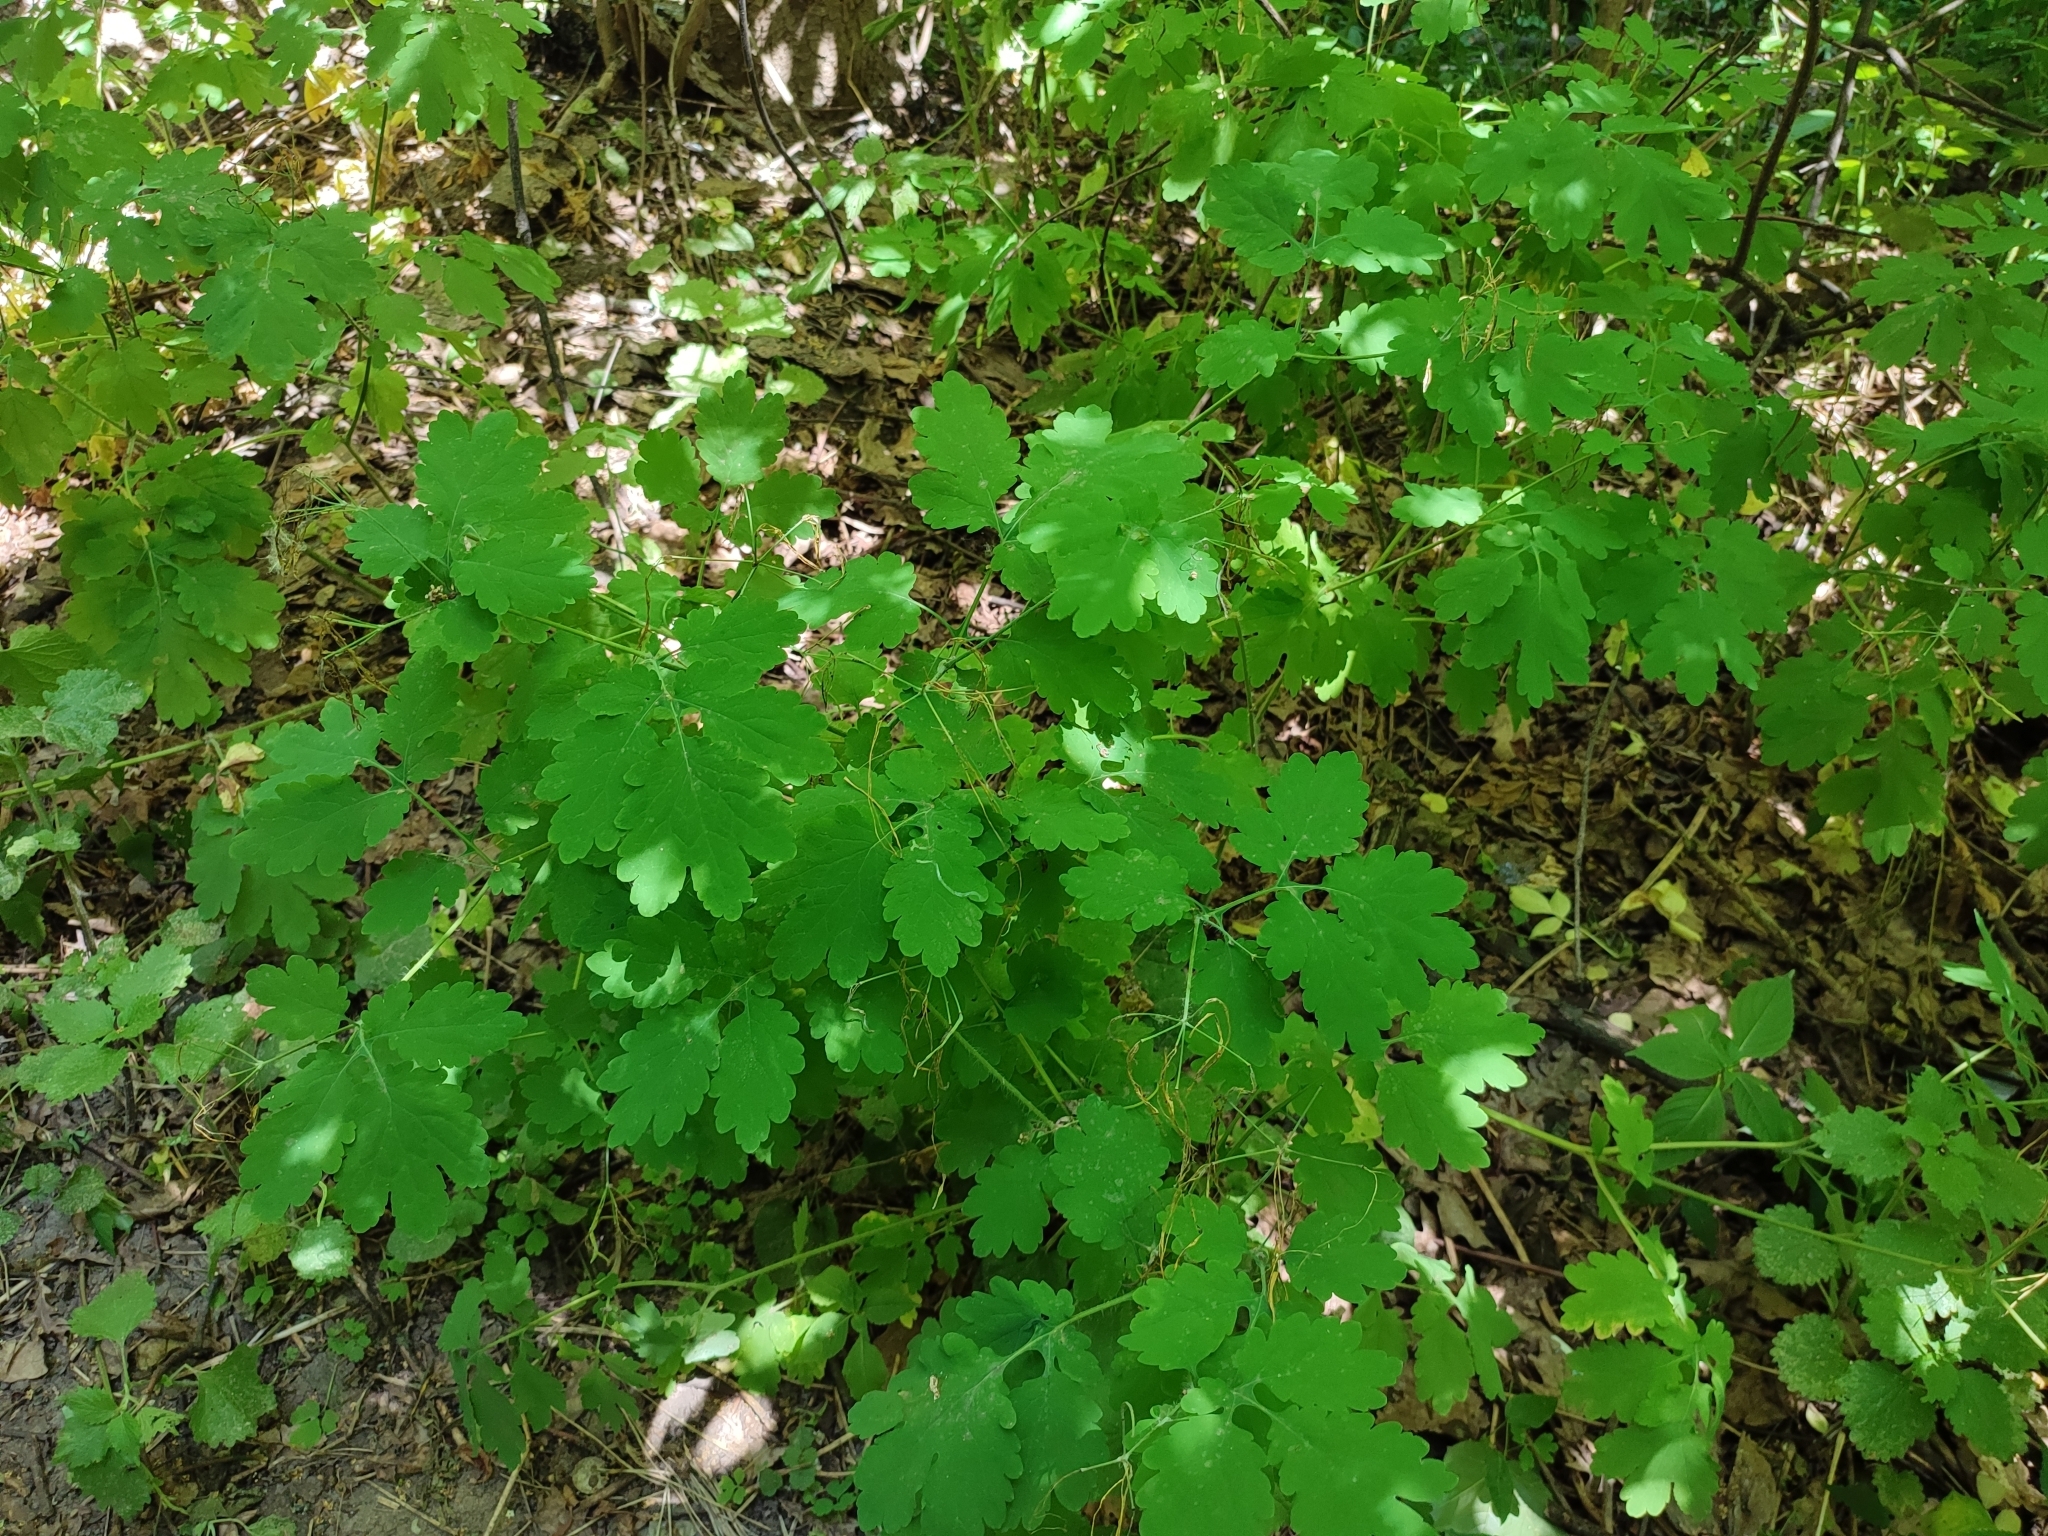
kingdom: Plantae
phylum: Tracheophyta
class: Magnoliopsida
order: Ranunculales
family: Papaveraceae
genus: Chelidonium
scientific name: Chelidonium majus
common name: Greater celandine
